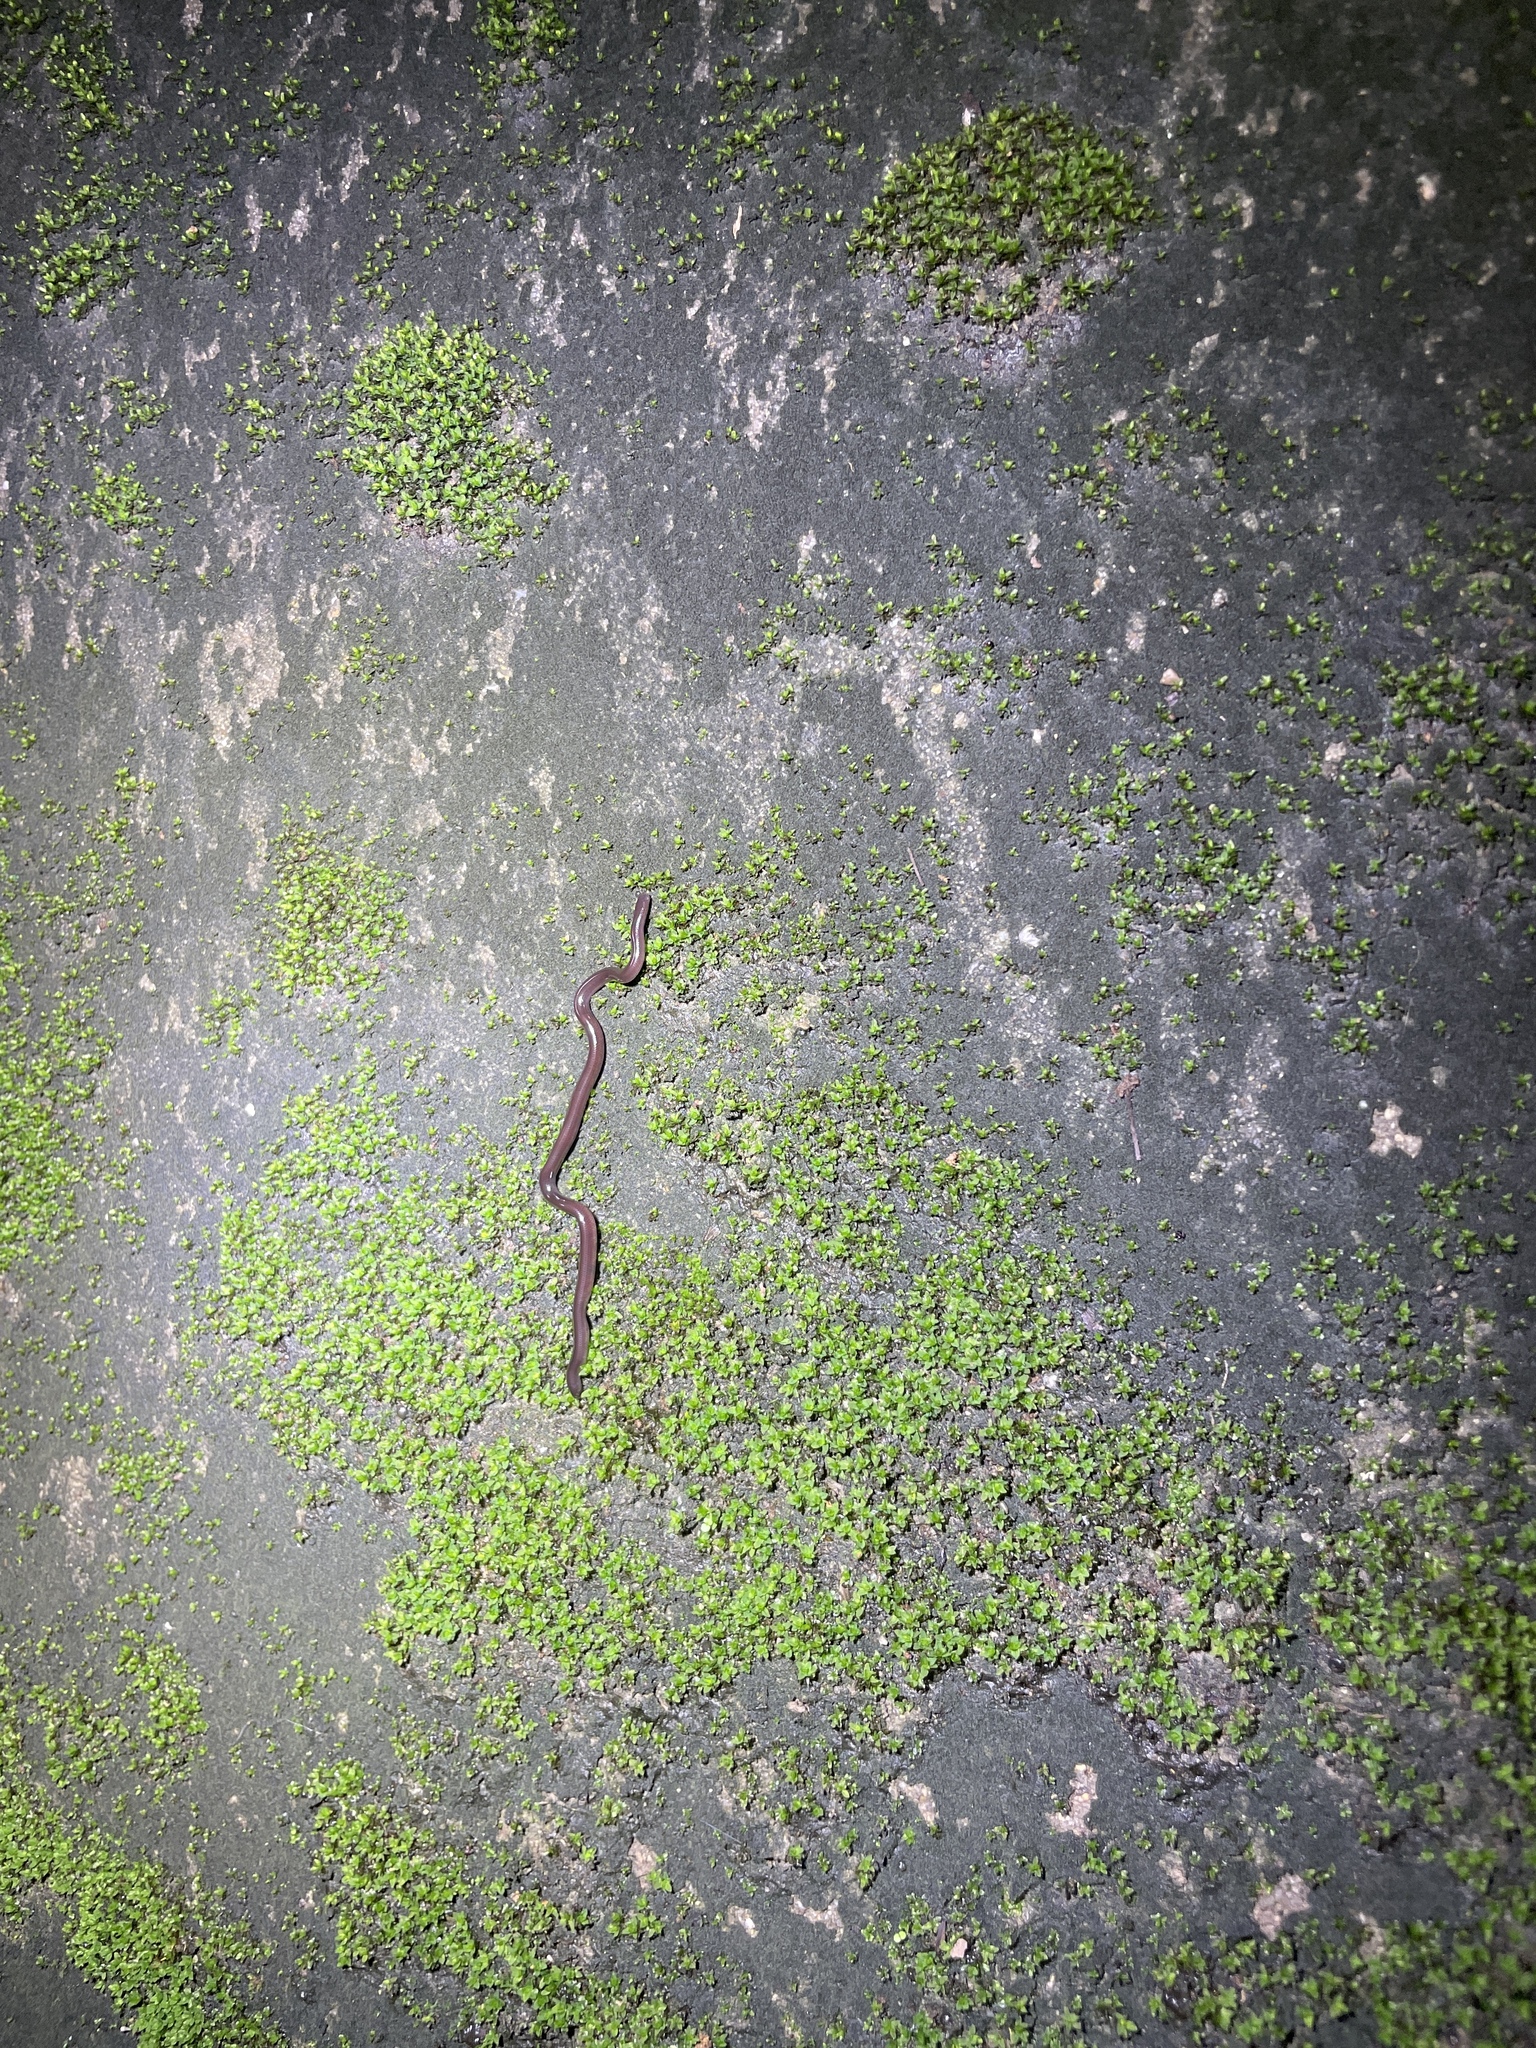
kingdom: Animalia
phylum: Chordata
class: Squamata
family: Typhlopidae
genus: Indotyphlops
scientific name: Indotyphlops braminus
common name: Brahminy blindsnake
